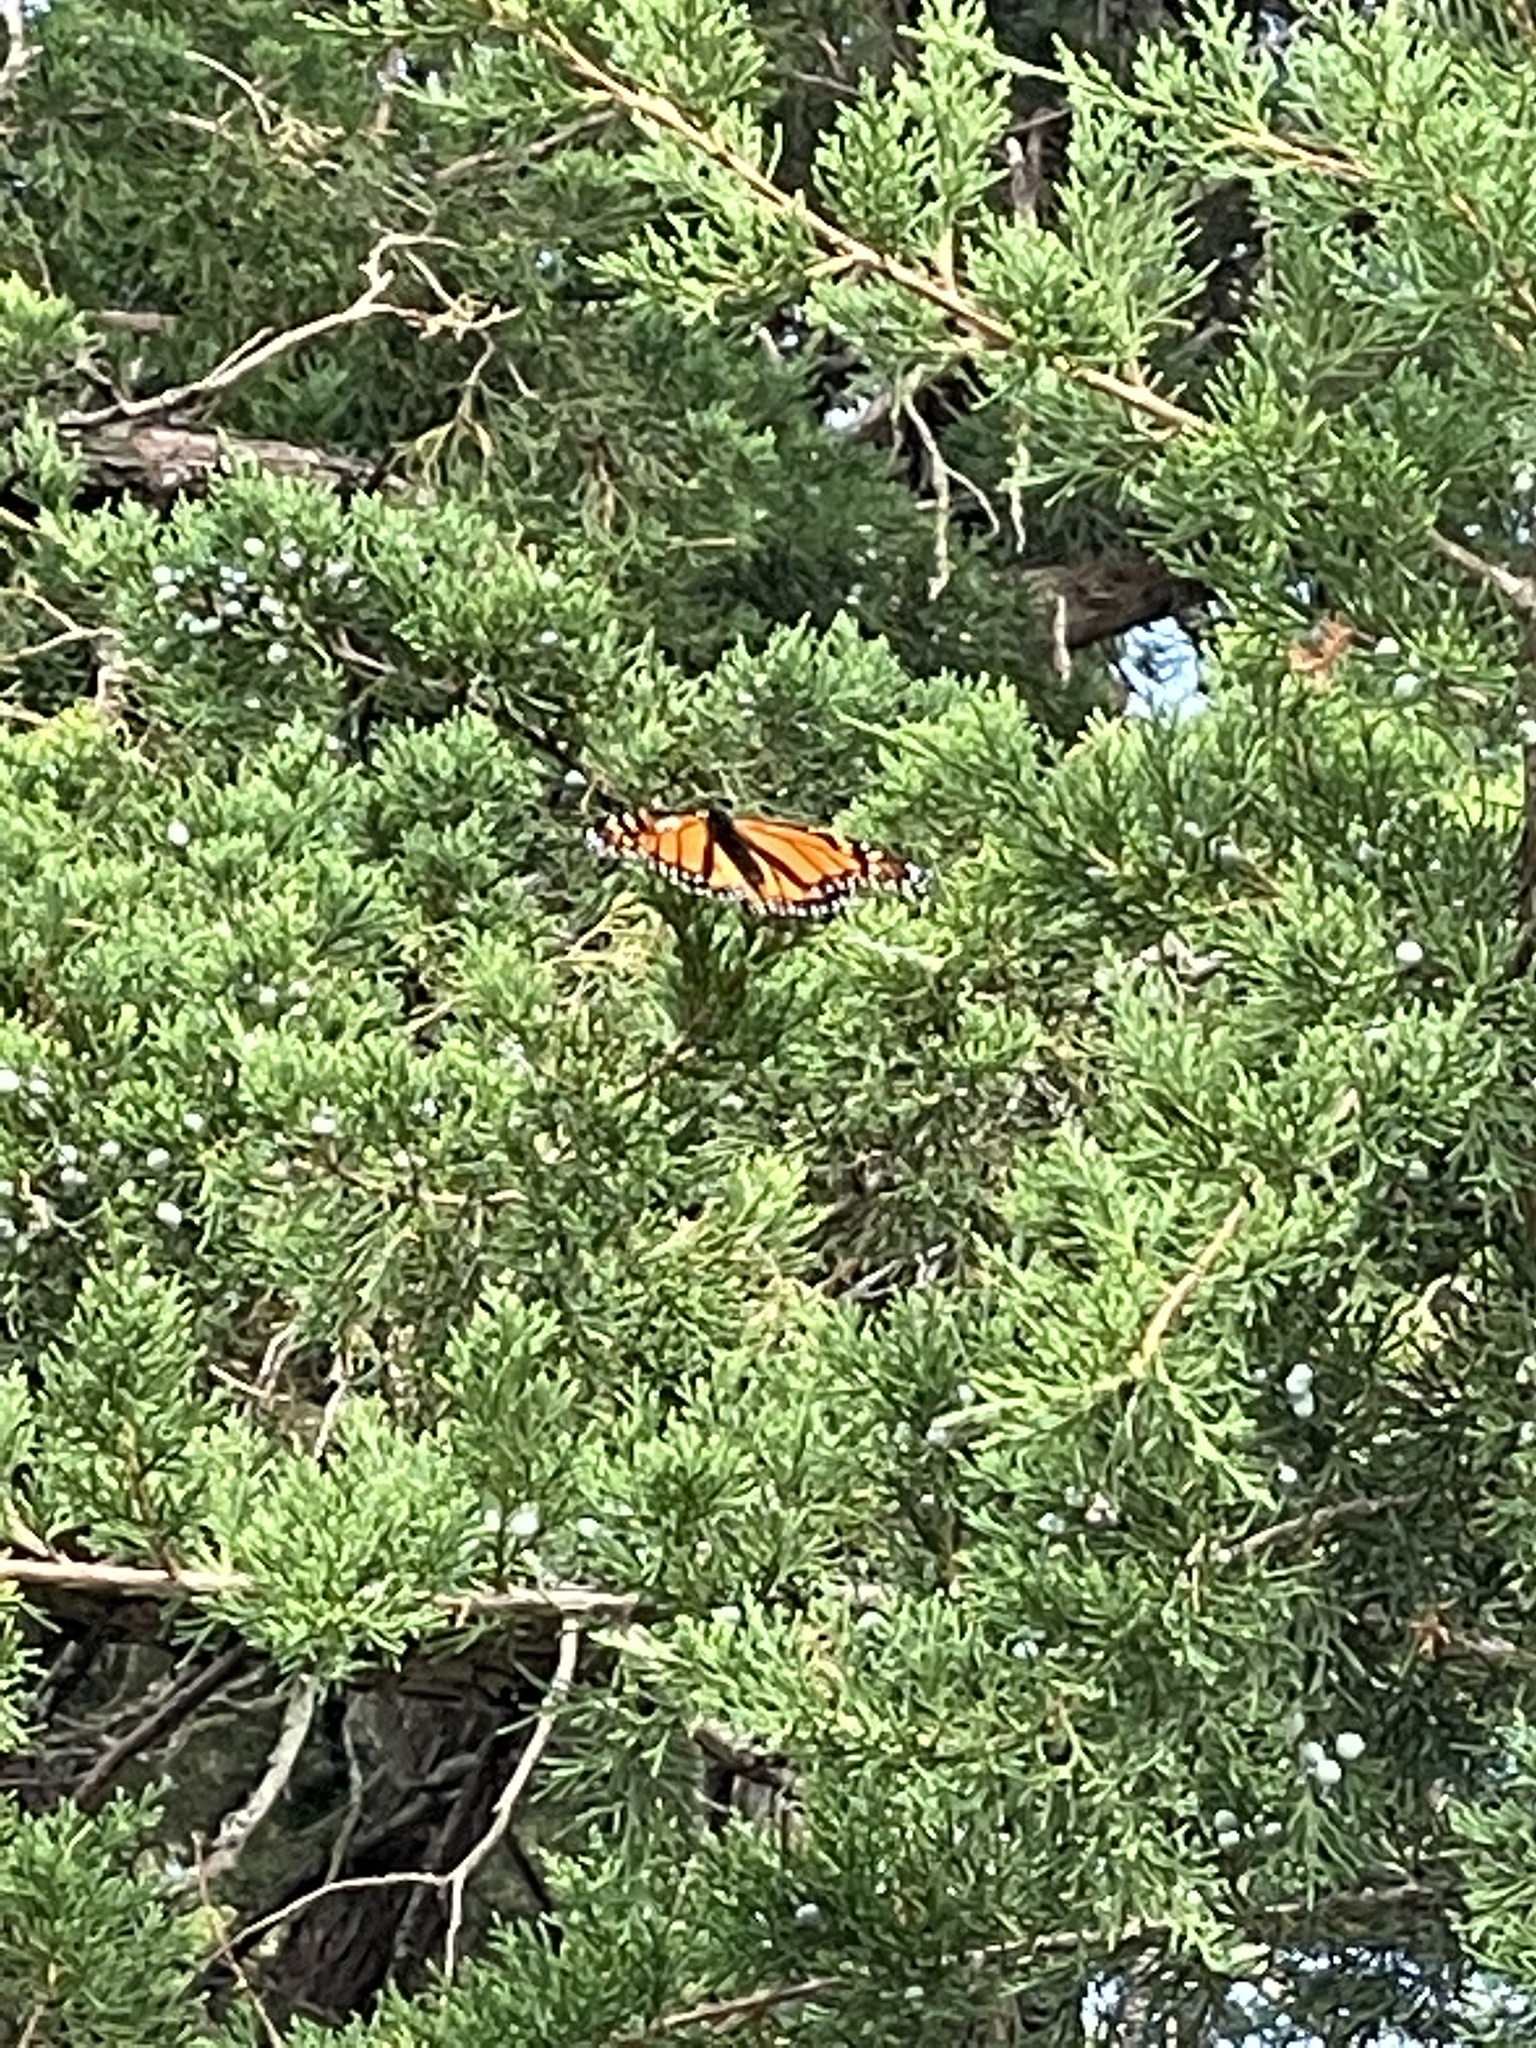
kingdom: Animalia
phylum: Arthropoda
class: Insecta
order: Lepidoptera
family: Nymphalidae
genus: Danaus
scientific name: Danaus plexippus
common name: Monarch
